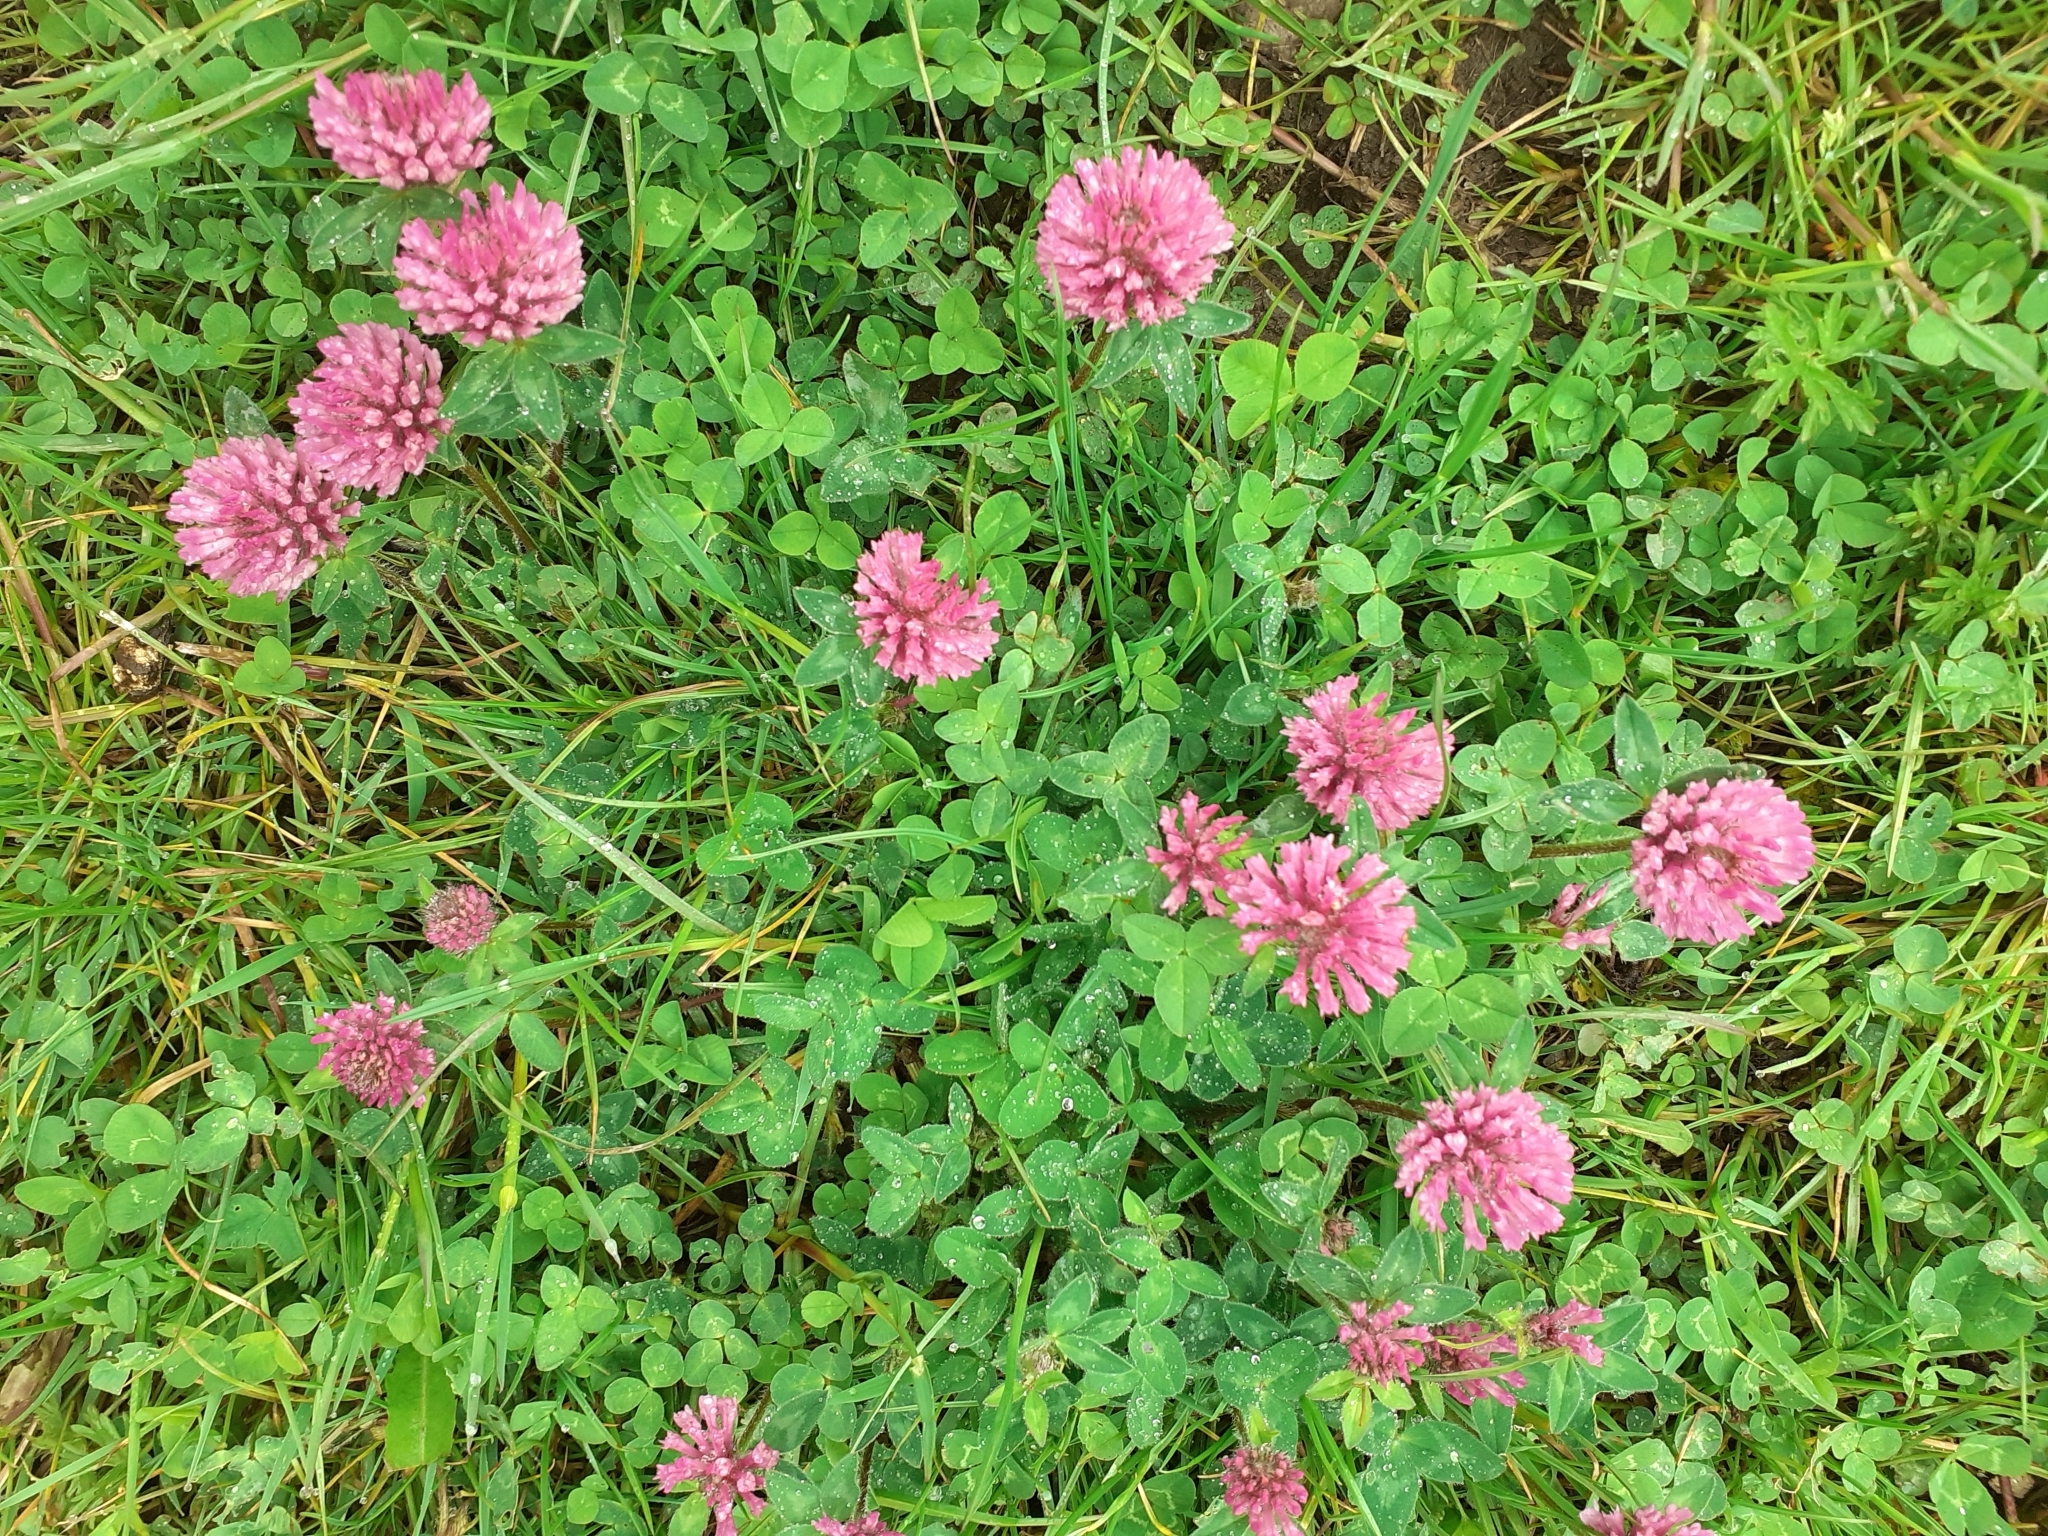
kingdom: Plantae
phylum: Tracheophyta
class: Magnoliopsida
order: Fabales
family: Fabaceae
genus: Trifolium
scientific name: Trifolium pratense
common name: Red clover
